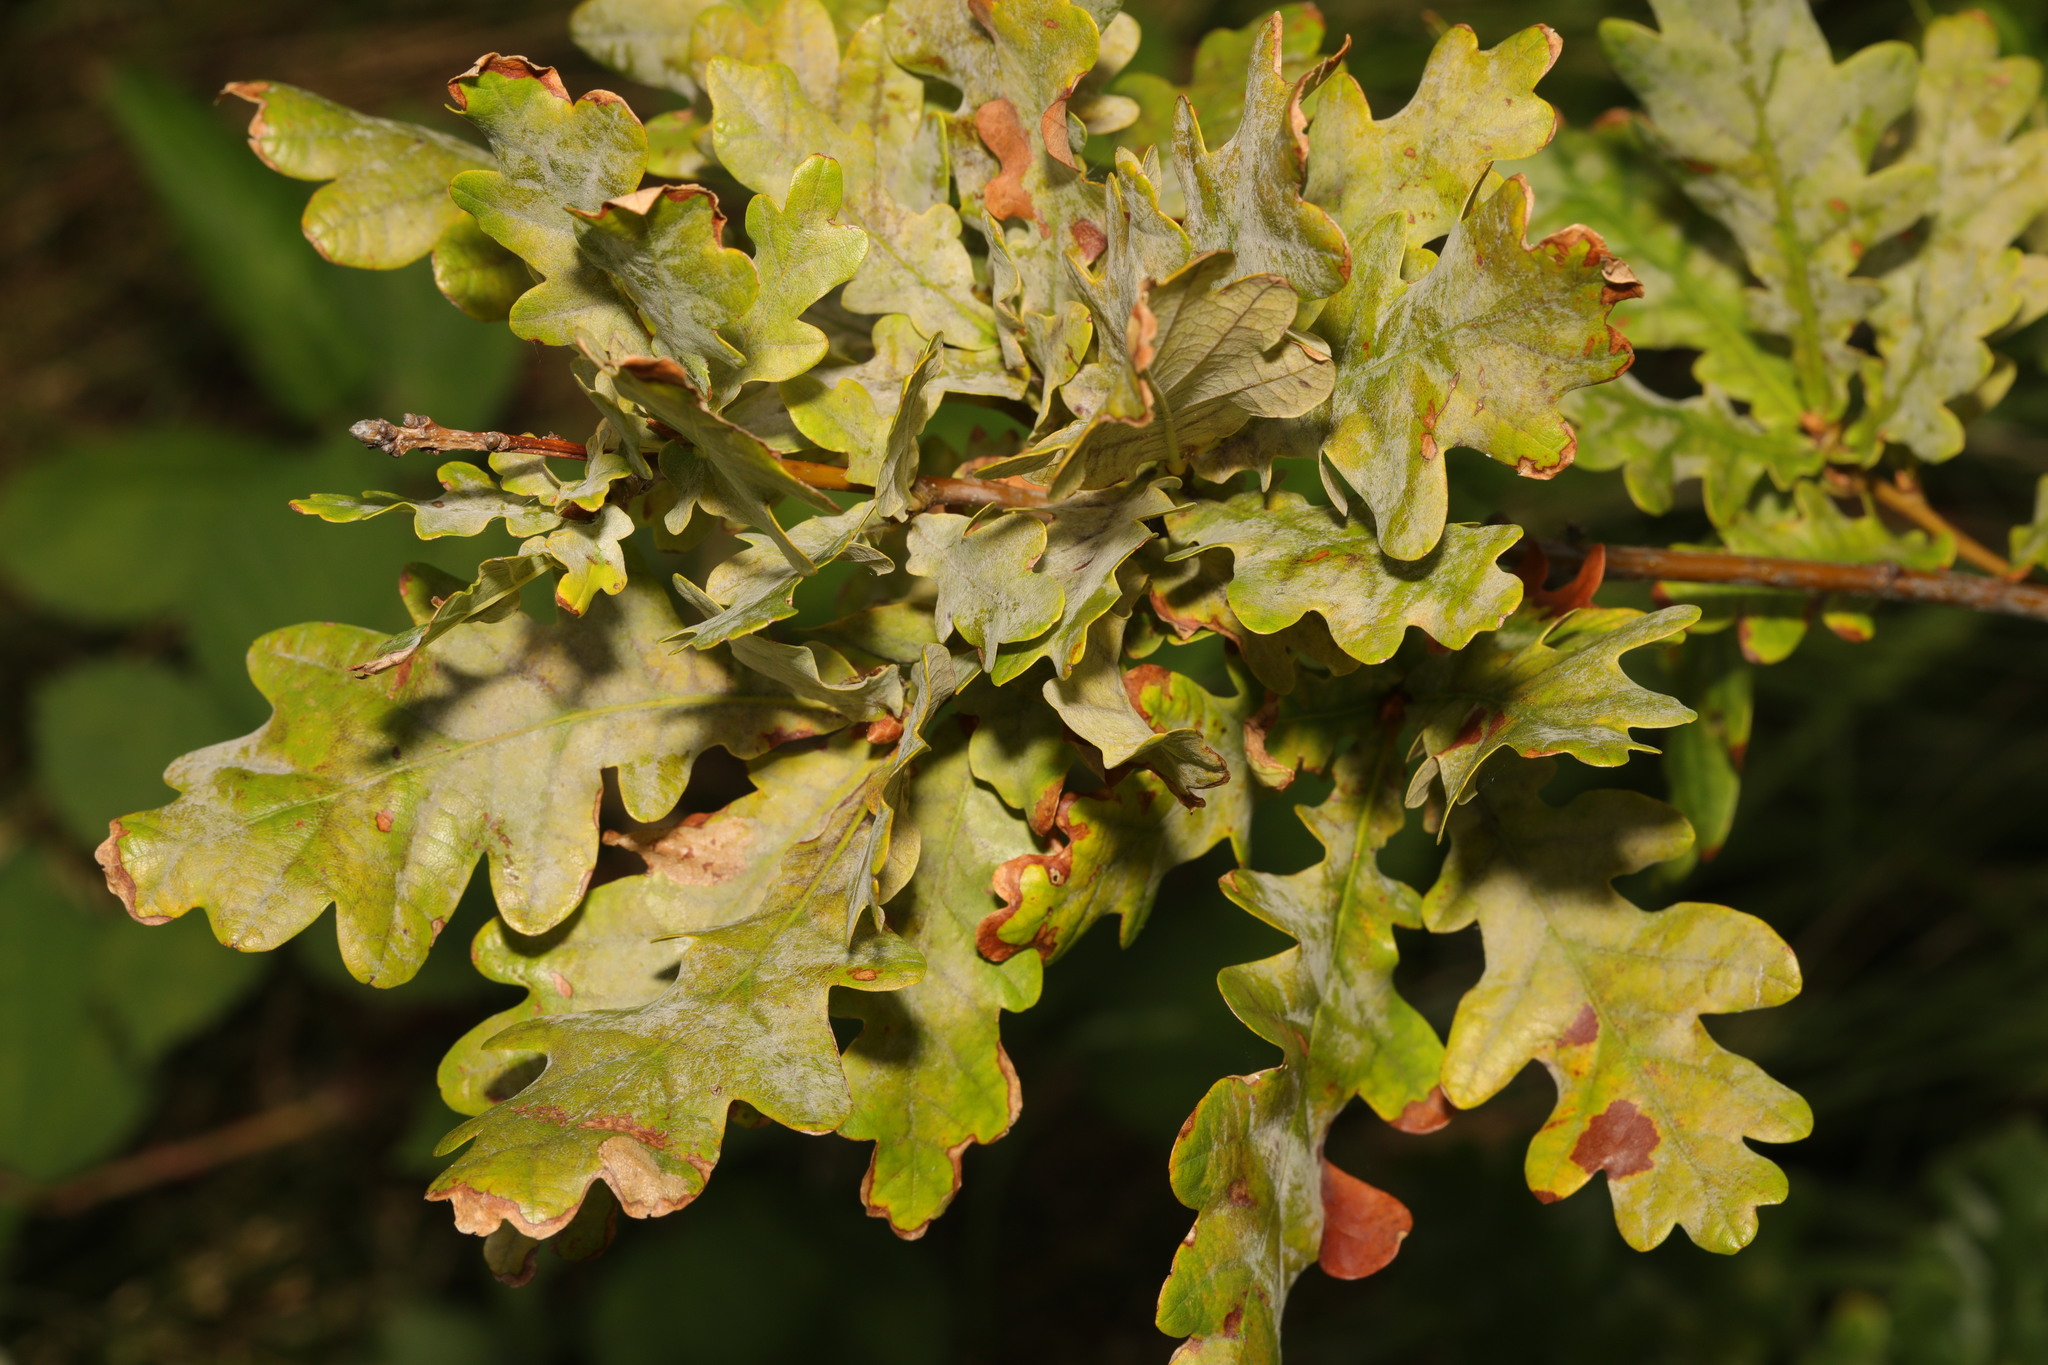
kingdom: Plantae
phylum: Tracheophyta
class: Magnoliopsida
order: Fagales
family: Fagaceae
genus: Quercus
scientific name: Quercus robur
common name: Pedunculate oak
